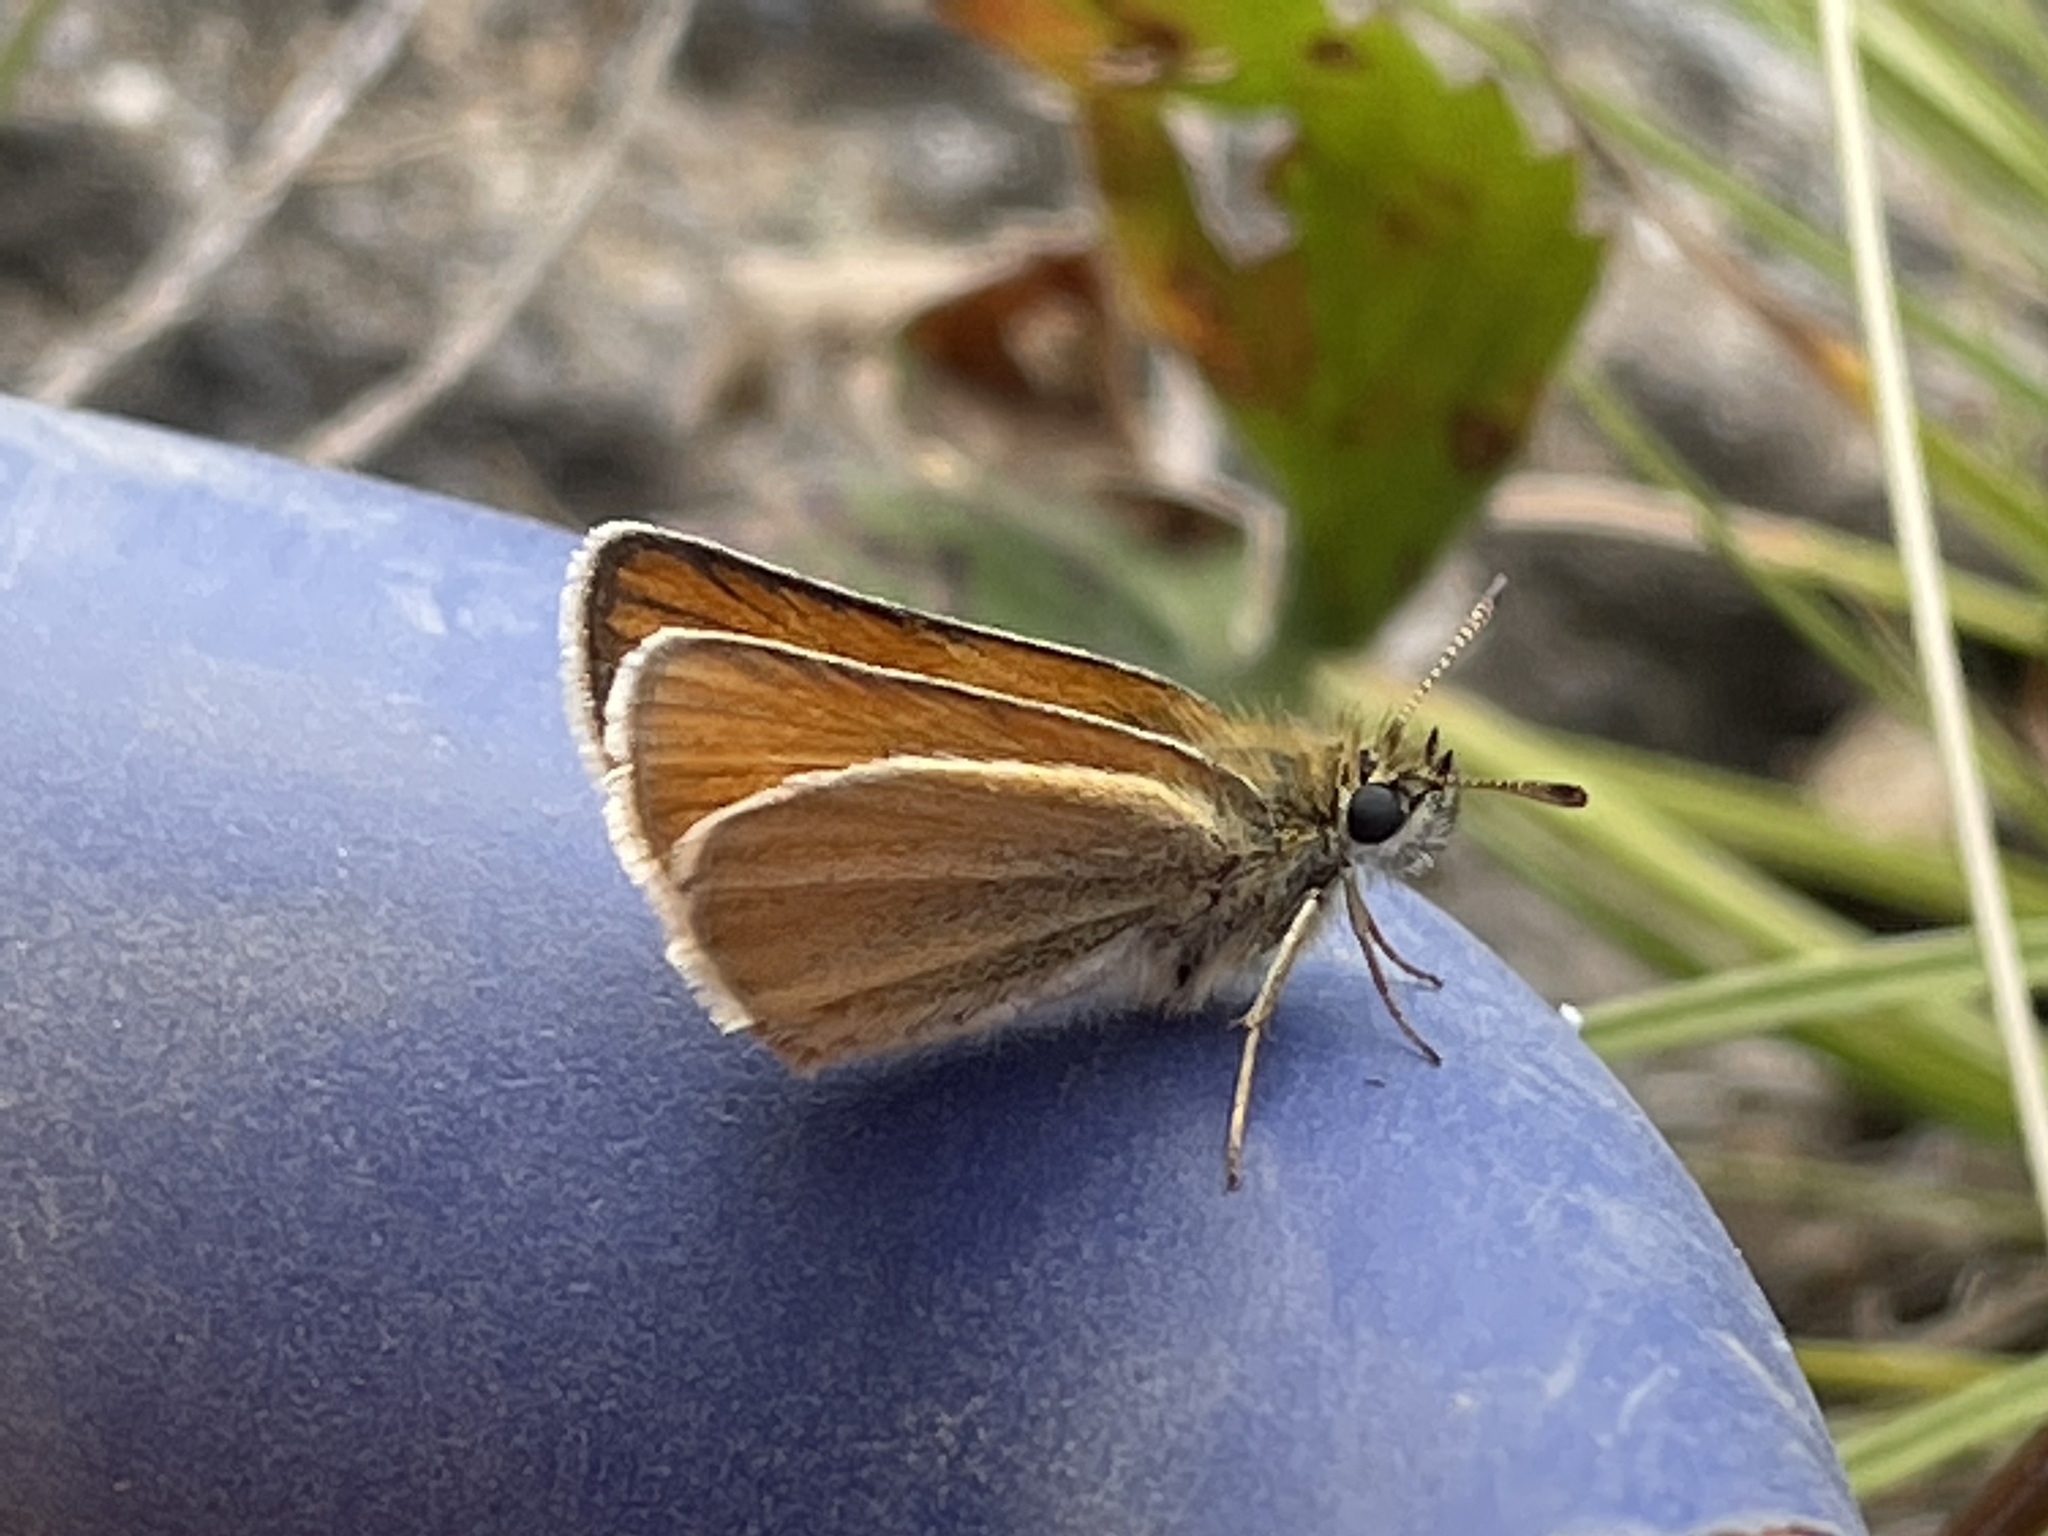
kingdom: Animalia
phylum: Arthropoda
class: Insecta
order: Lepidoptera
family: Hesperiidae
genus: Thymelicus
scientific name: Thymelicus lineola
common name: Essex skipper
